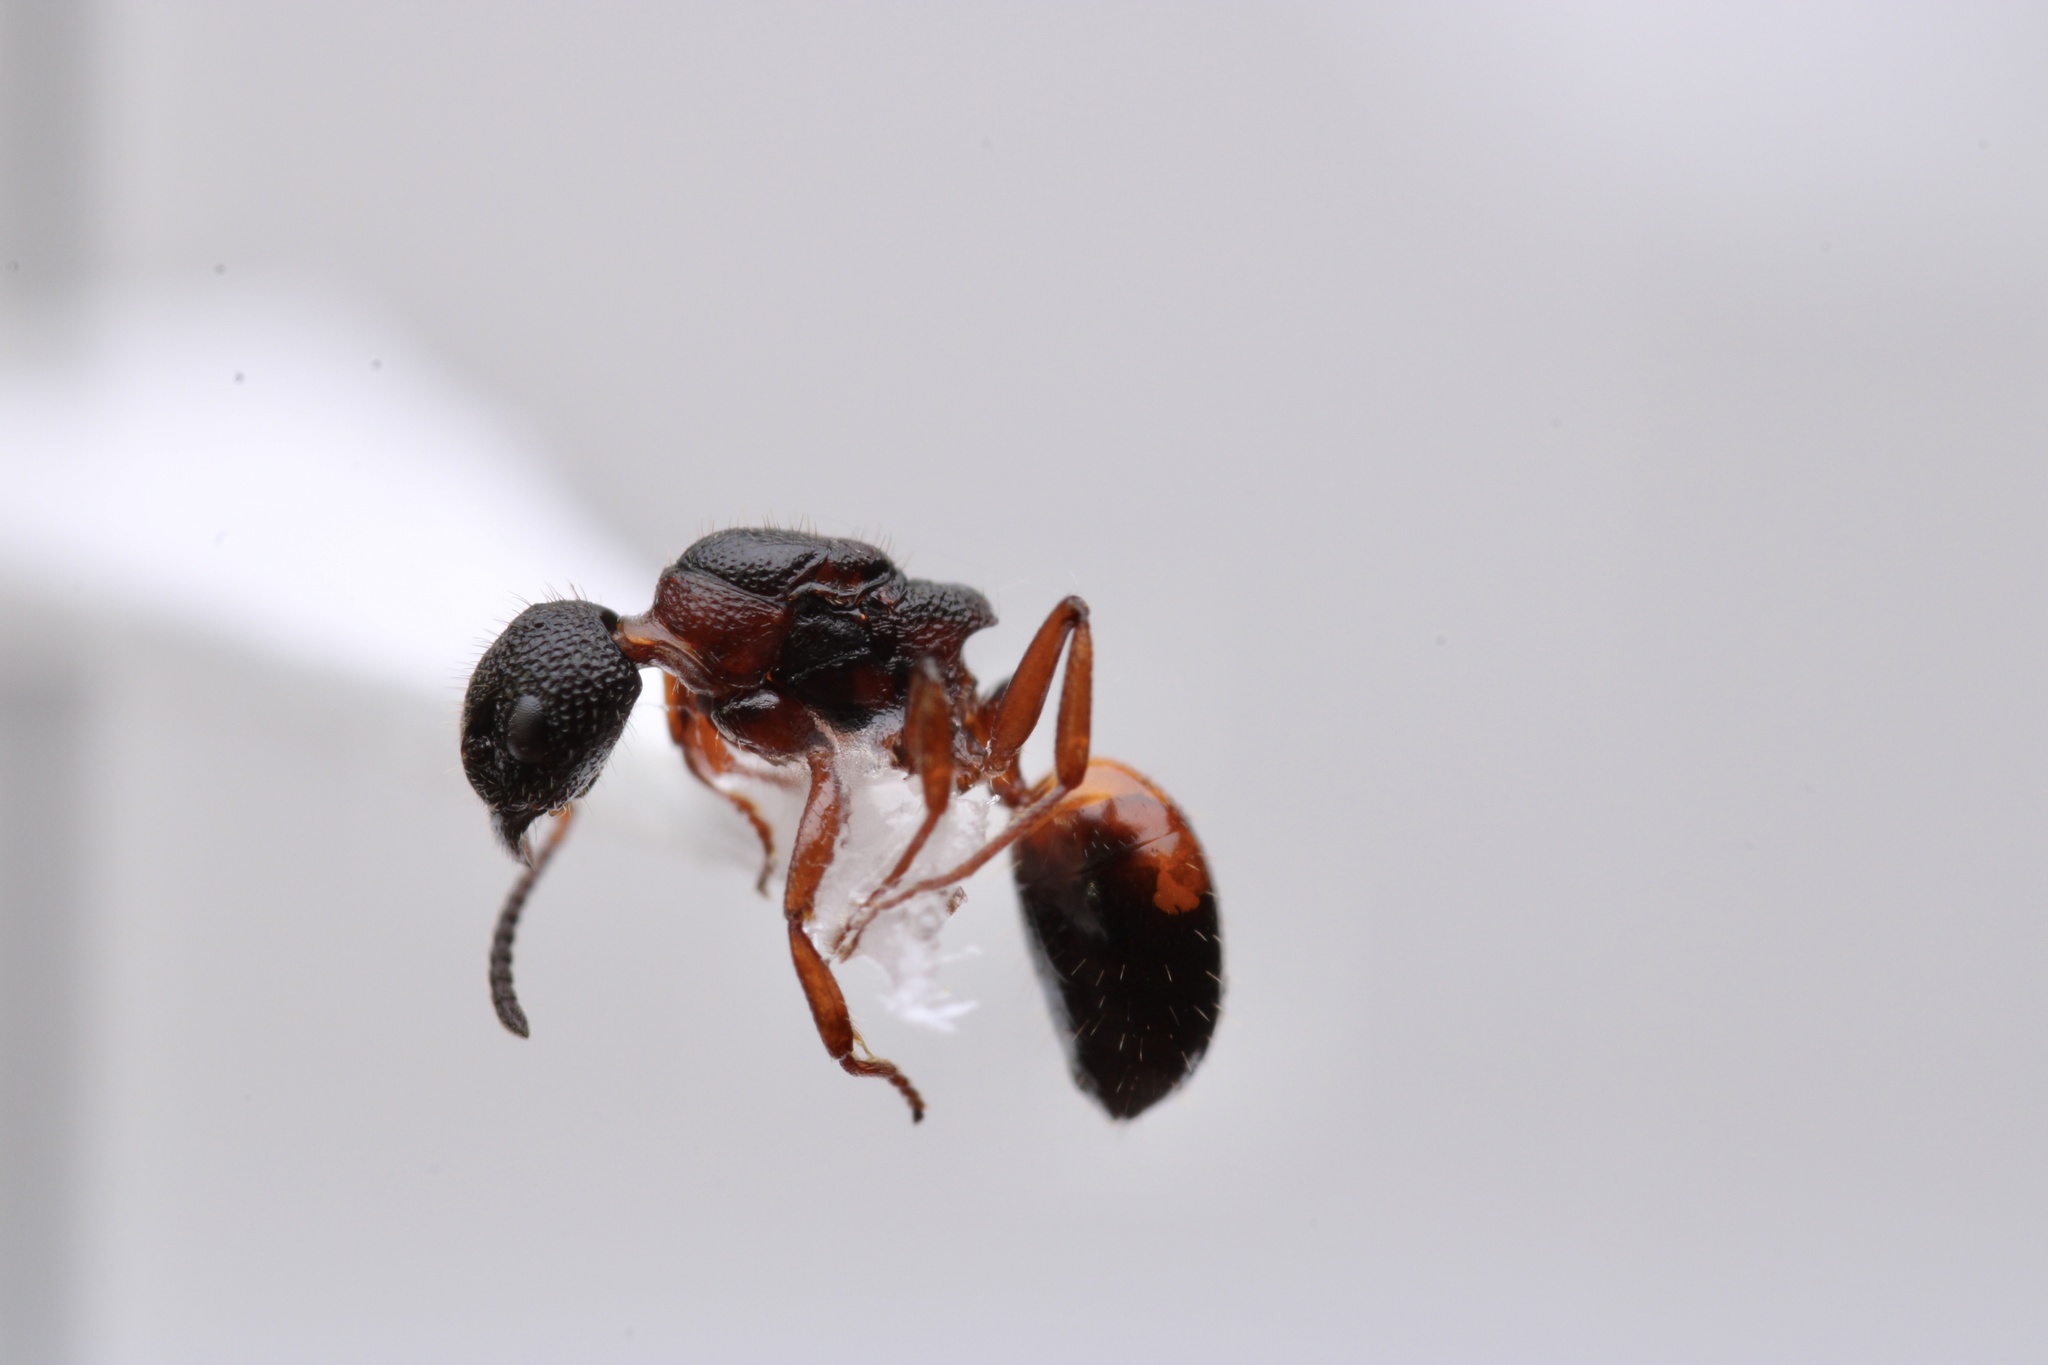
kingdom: Animalia
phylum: Arthropoda
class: Insecta
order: Hymenoptera
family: Formicidae
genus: Dolichoderus
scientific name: Dolichoderus plagiatus
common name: Mottled dolichoderus
